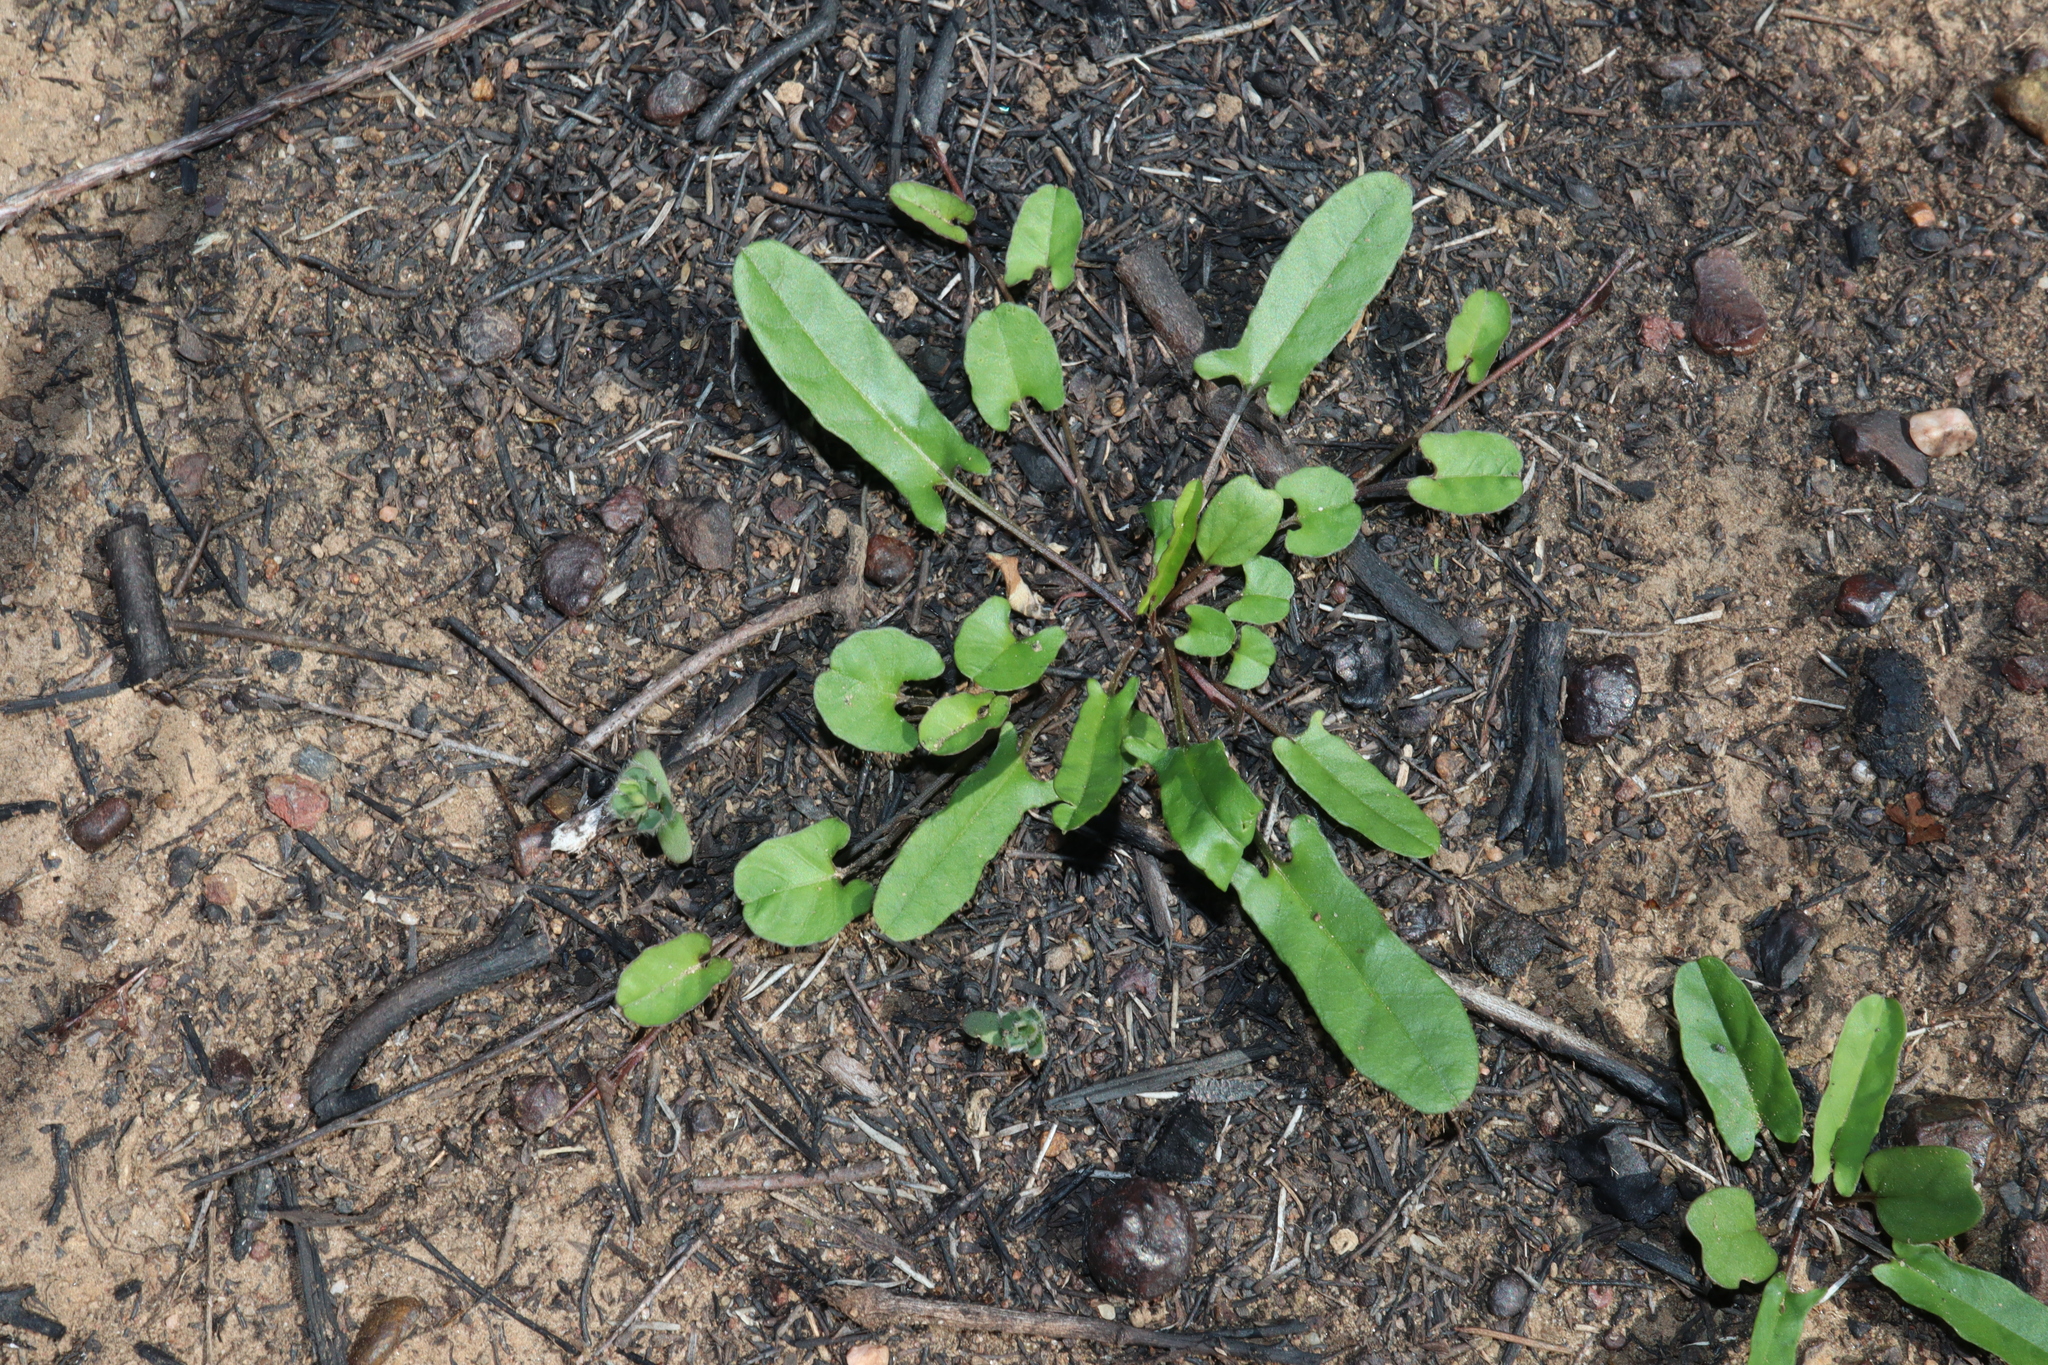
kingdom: Plantae
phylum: Tracheophyta
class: Magnoliopsida
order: Solanales
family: Convolvulaceae
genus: Polymeria
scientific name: Polymeria calycina
